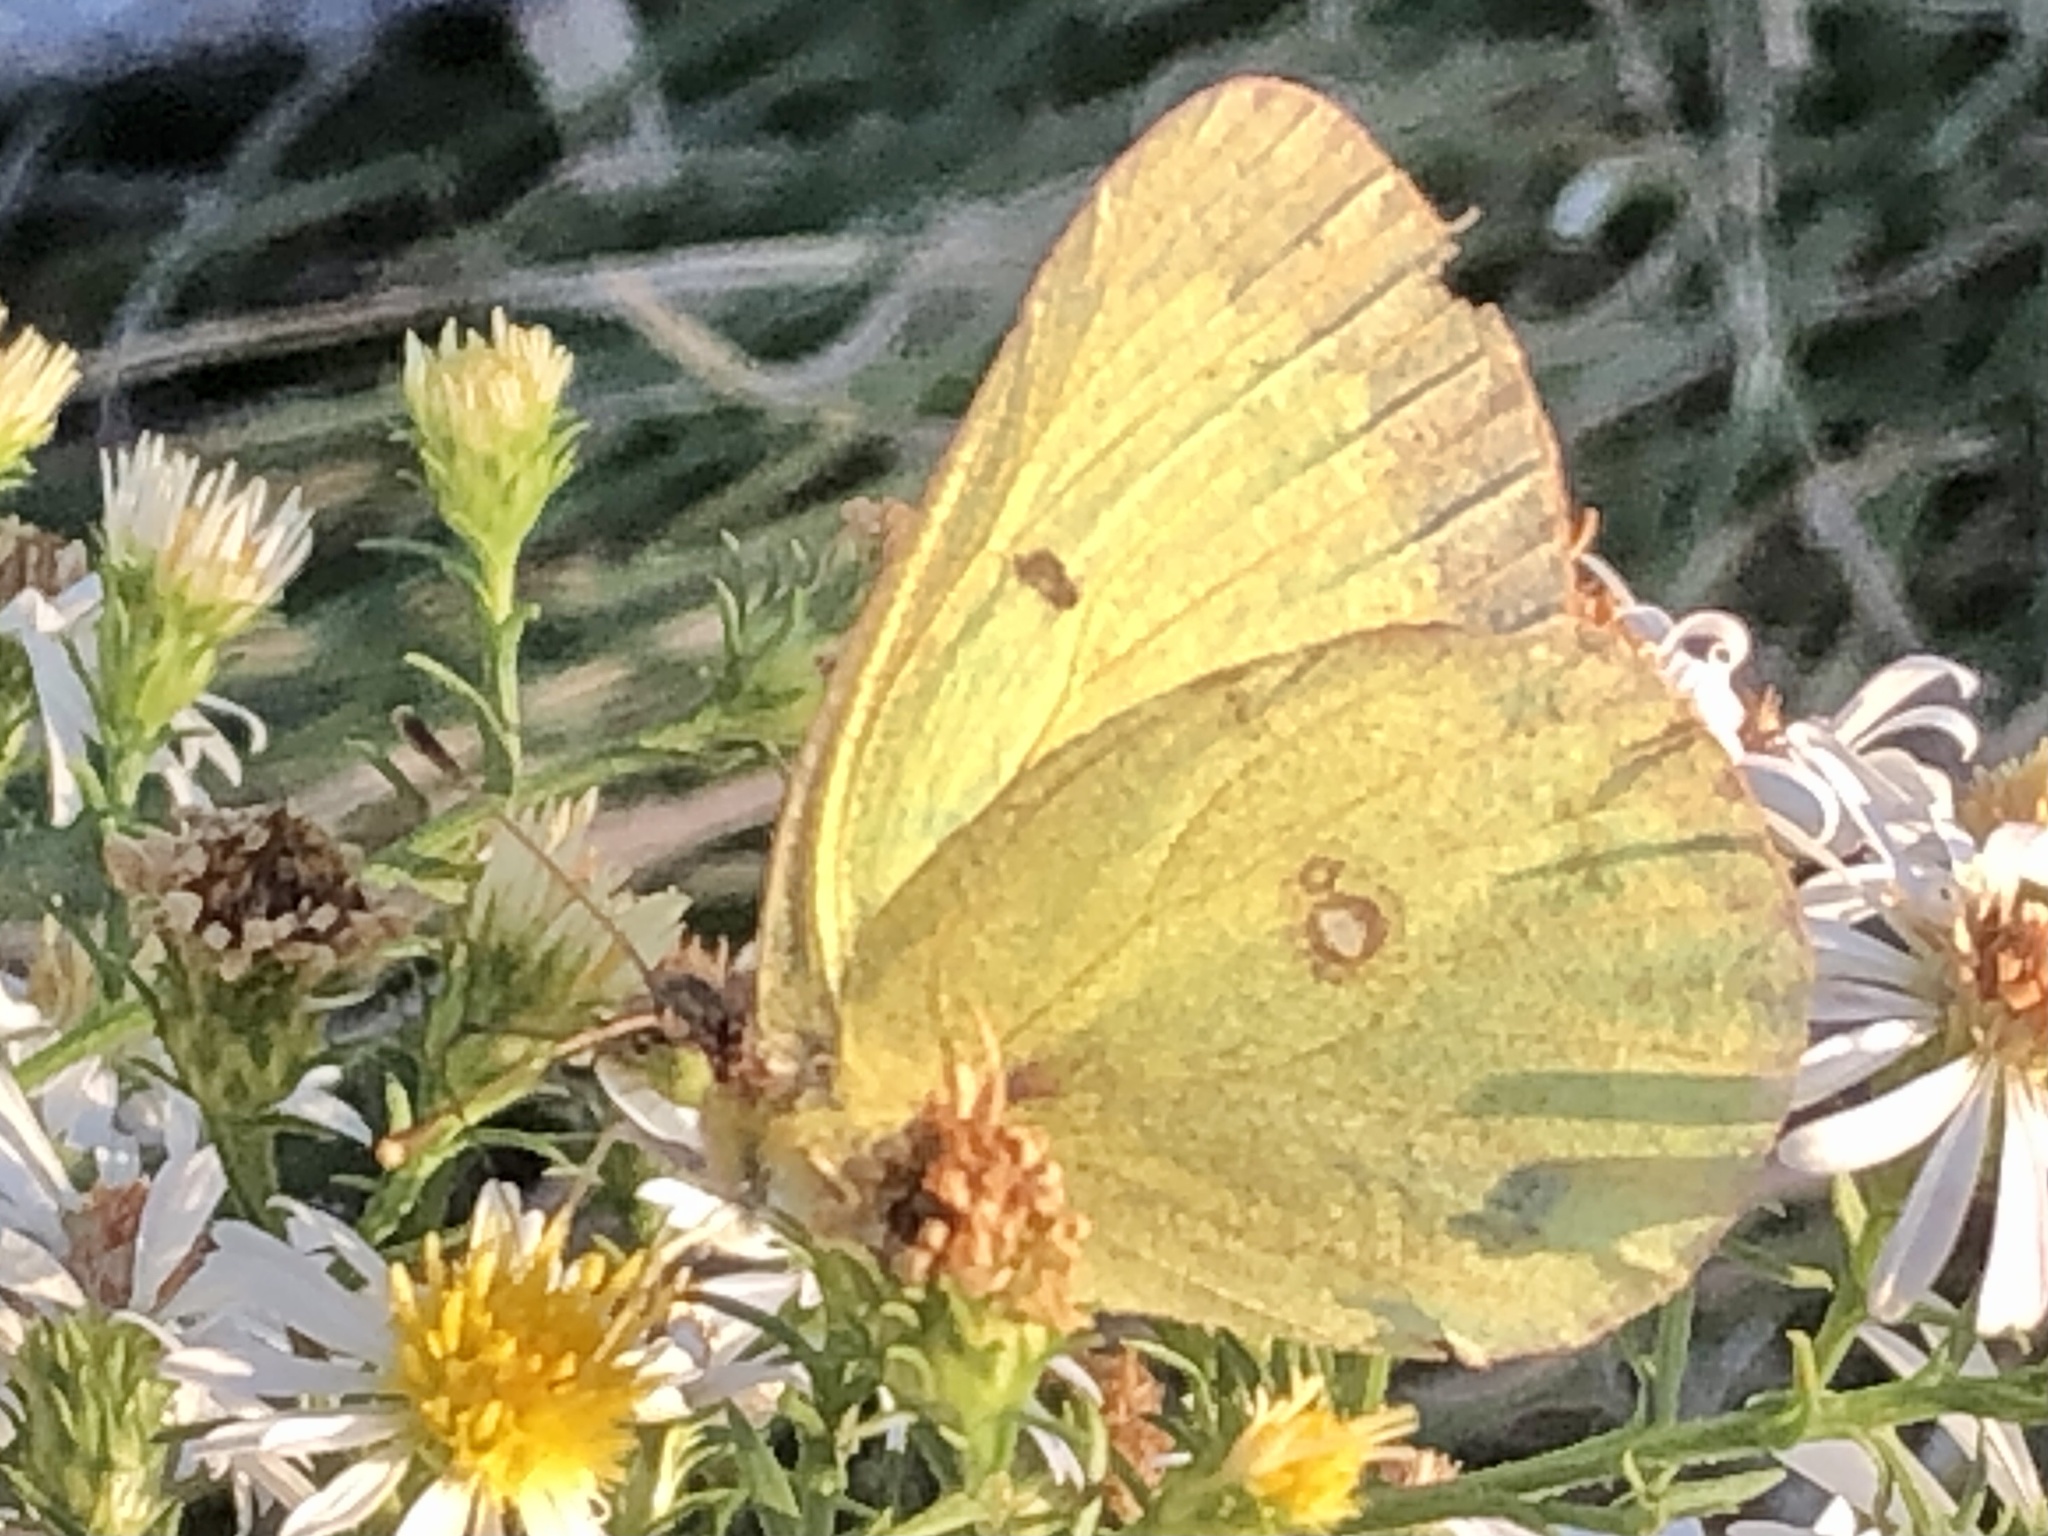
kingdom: Animalia
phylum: Arthropoda
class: Insecta
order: Lepidoptera
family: Pieridae
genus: Colias
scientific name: Colias philodice
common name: Clouded sulphur
